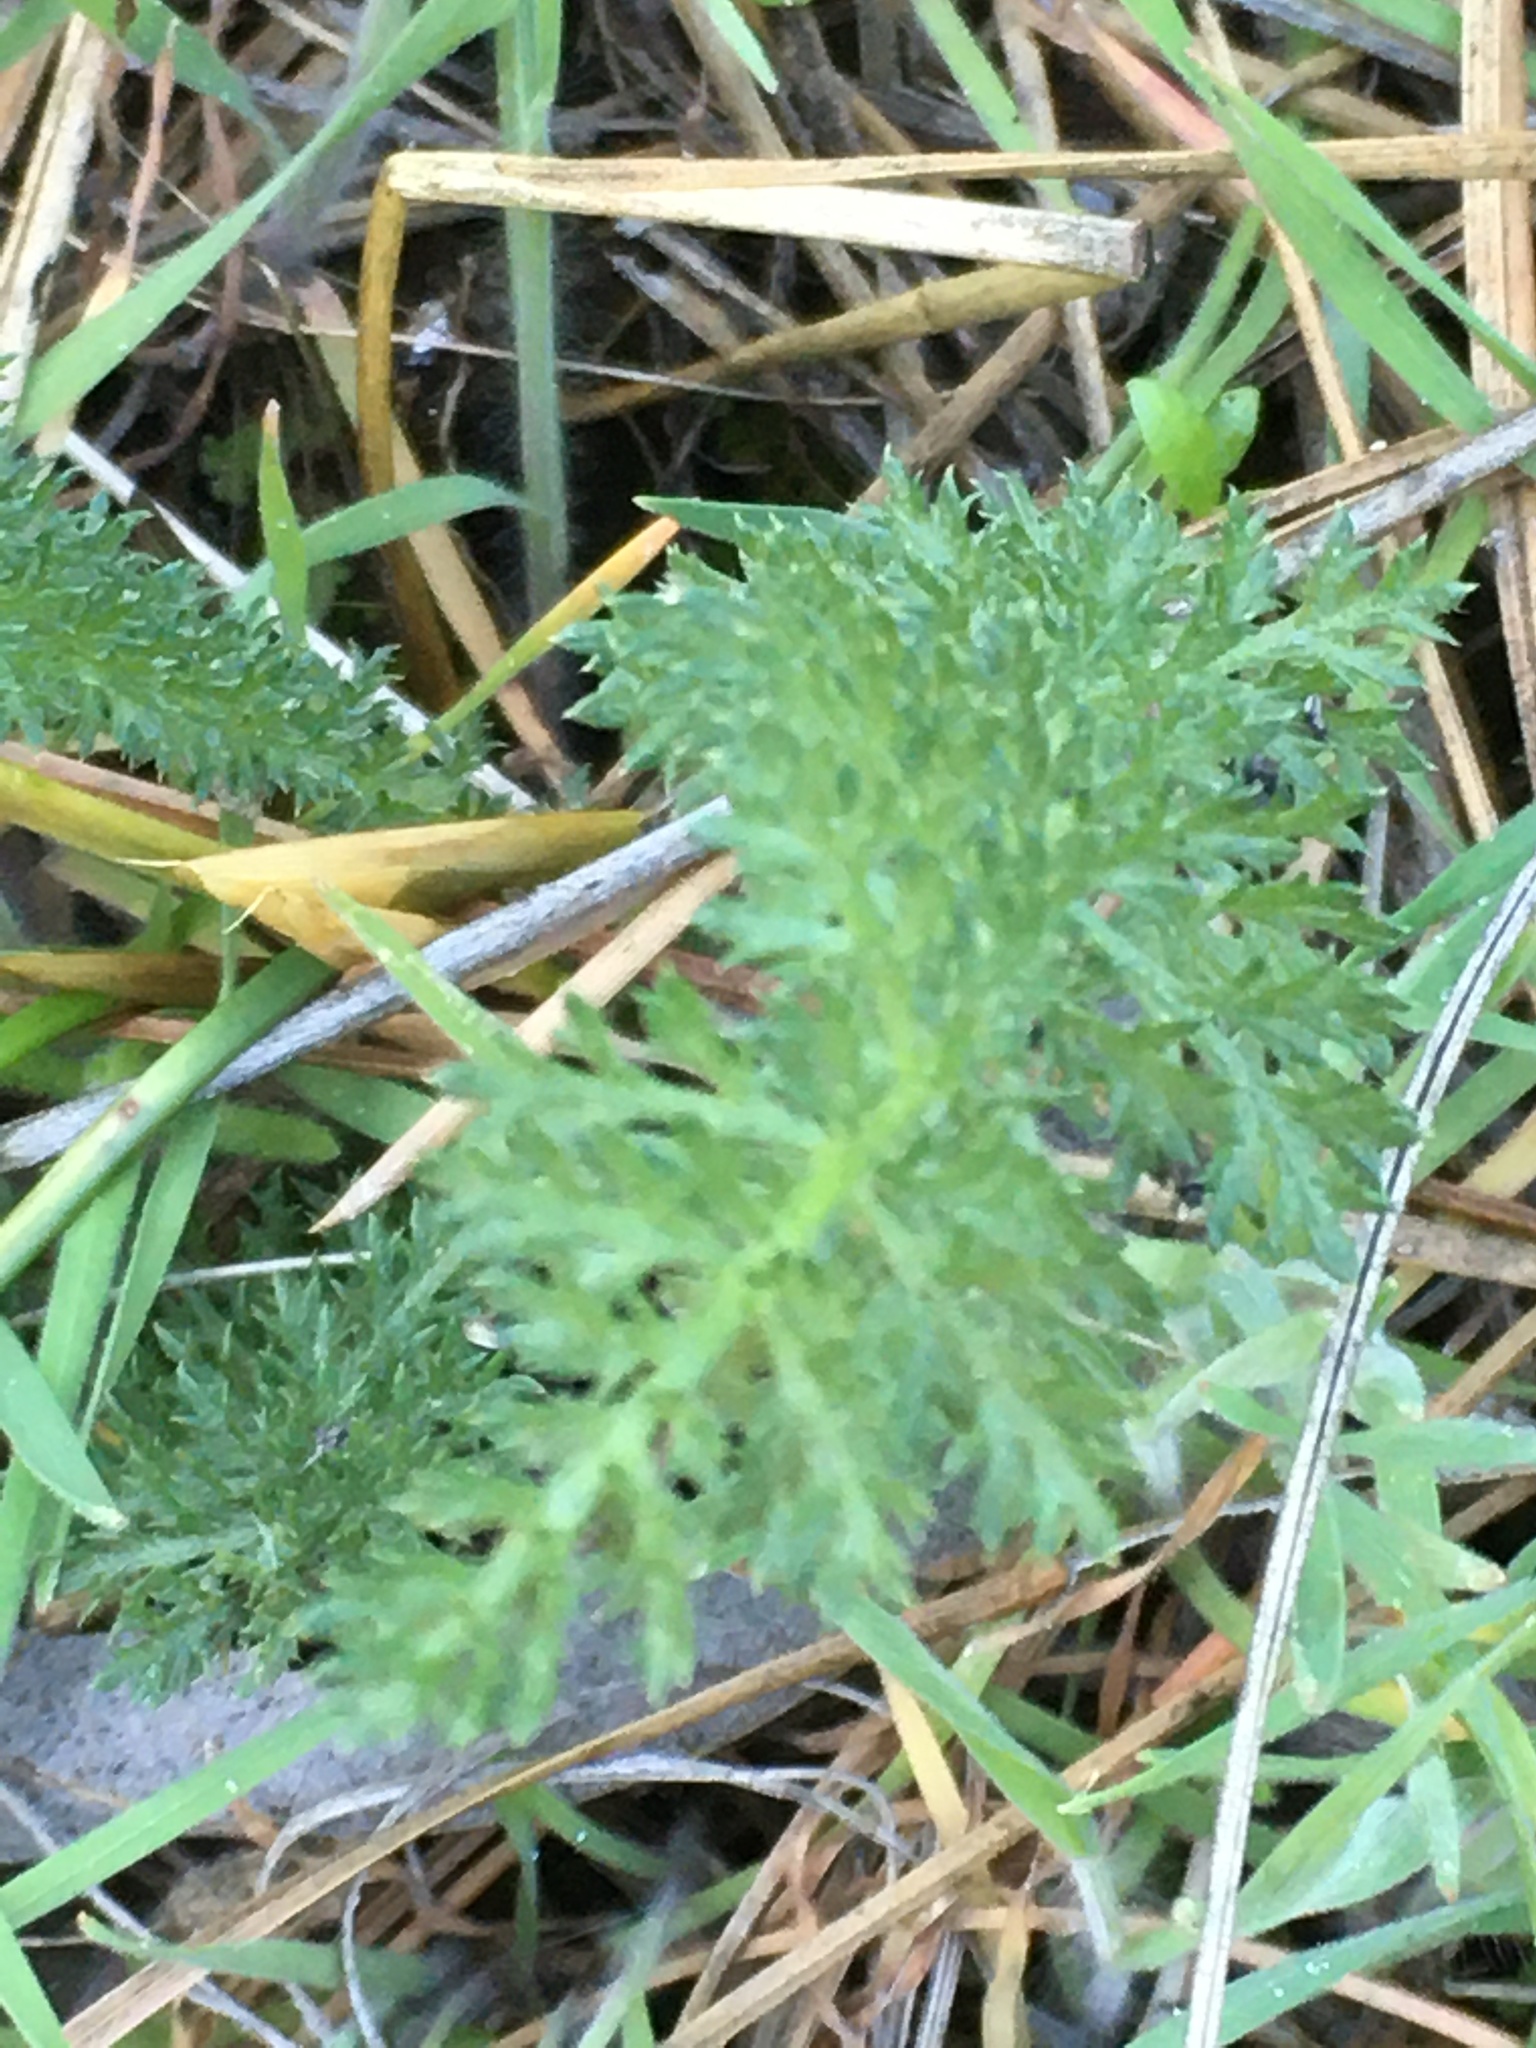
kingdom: Plantae
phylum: Tracheophyta
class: Magnoliopsida
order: Asterales
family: Asteraceae
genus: Achillea
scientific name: Achillea millefolium
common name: Yarrow
